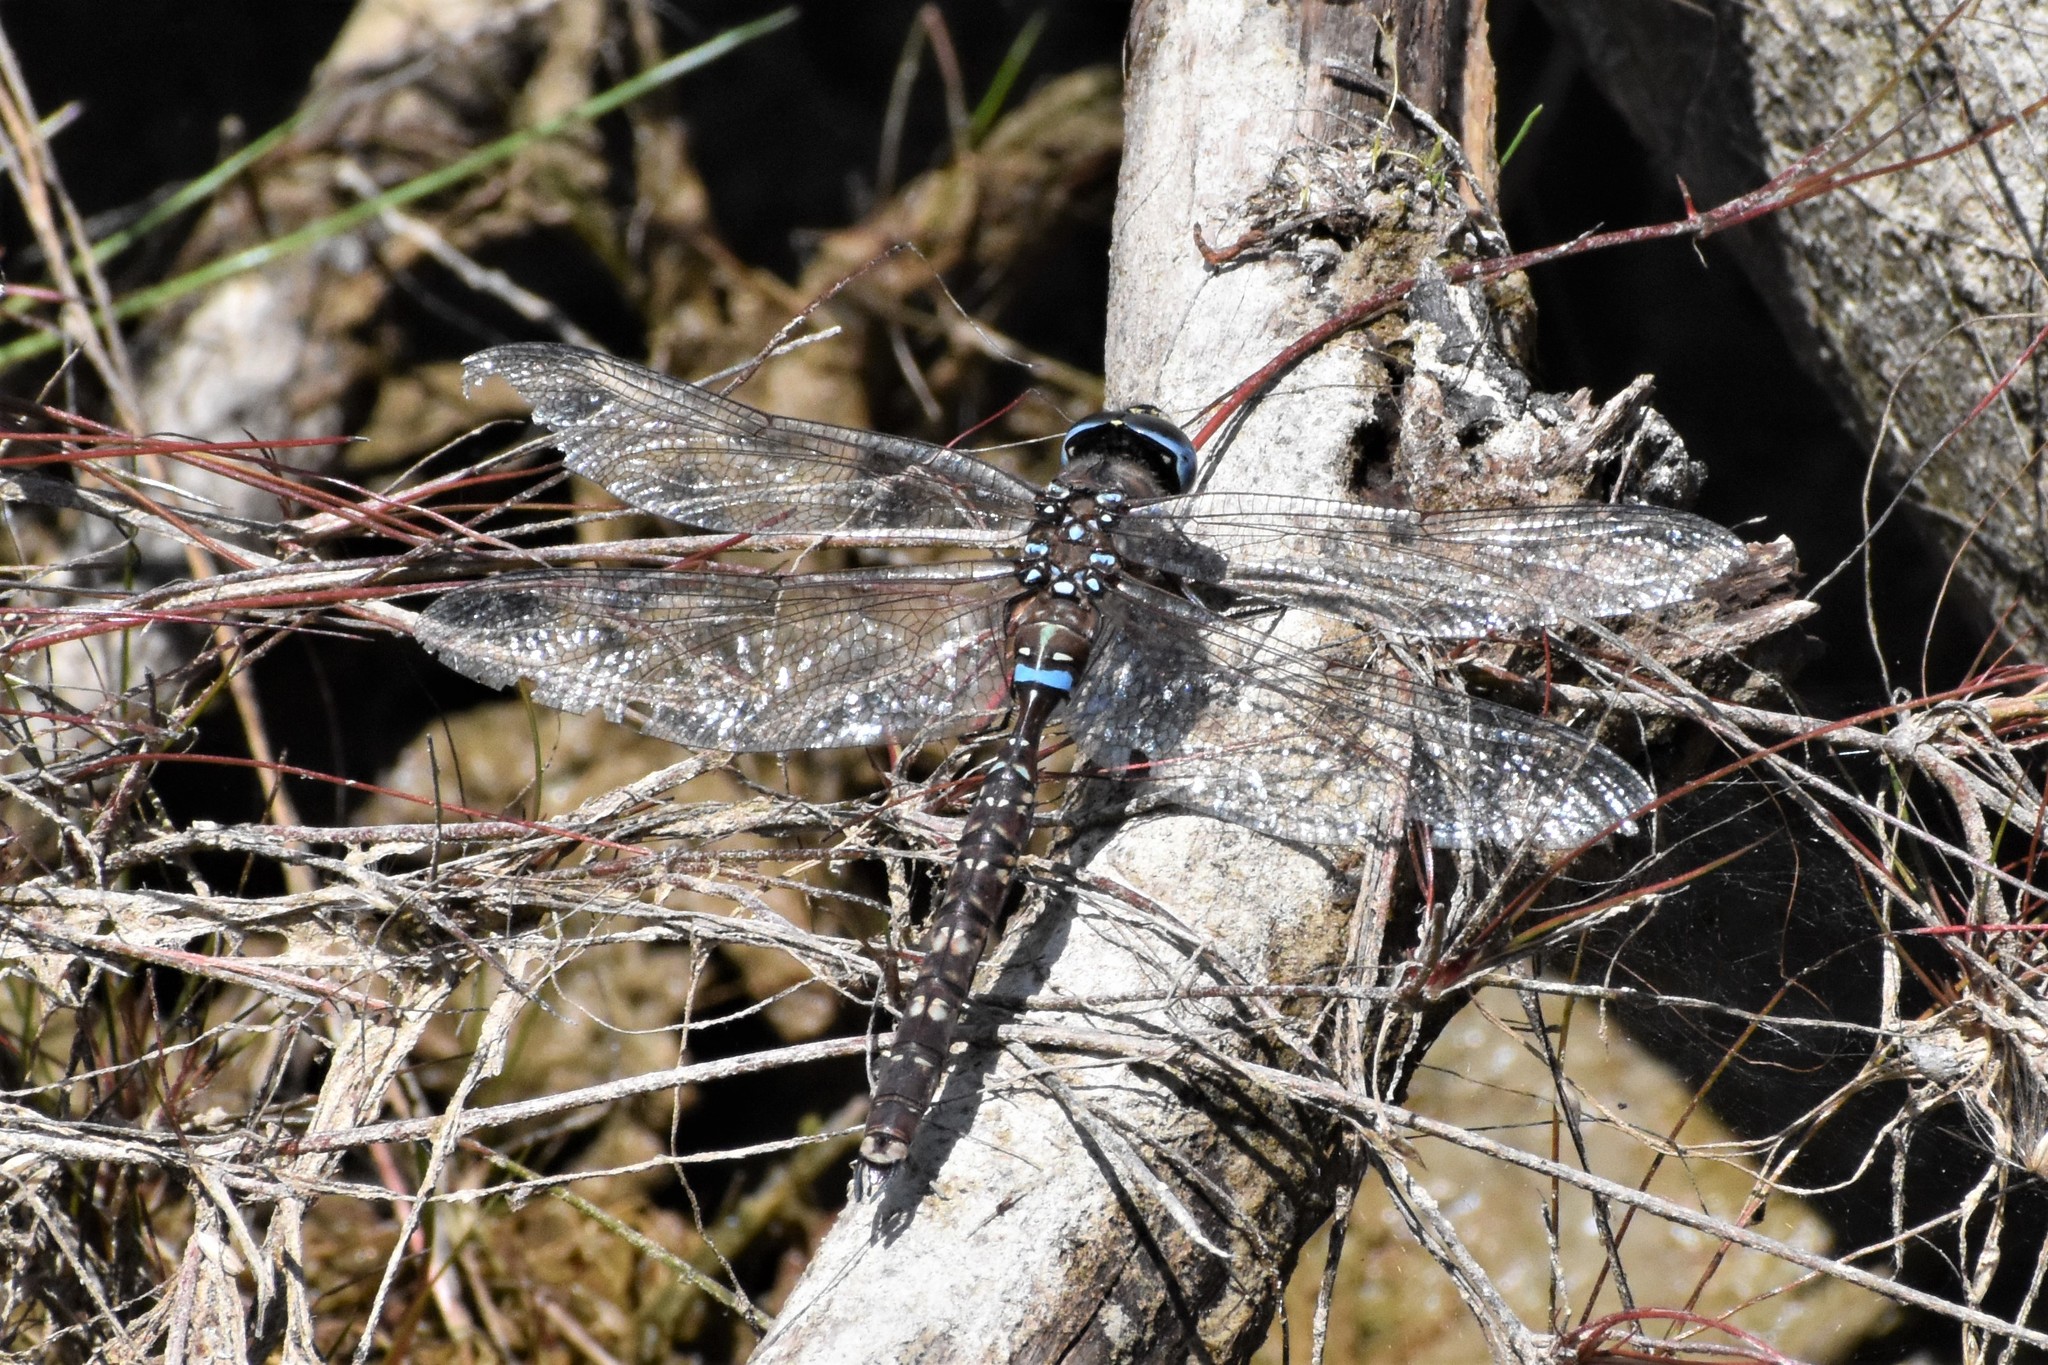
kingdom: Animalia
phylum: Arthropoda
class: Insecta
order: Odonata
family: Aeshnidae
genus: Aeshna
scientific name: Aeshna brevistyla
